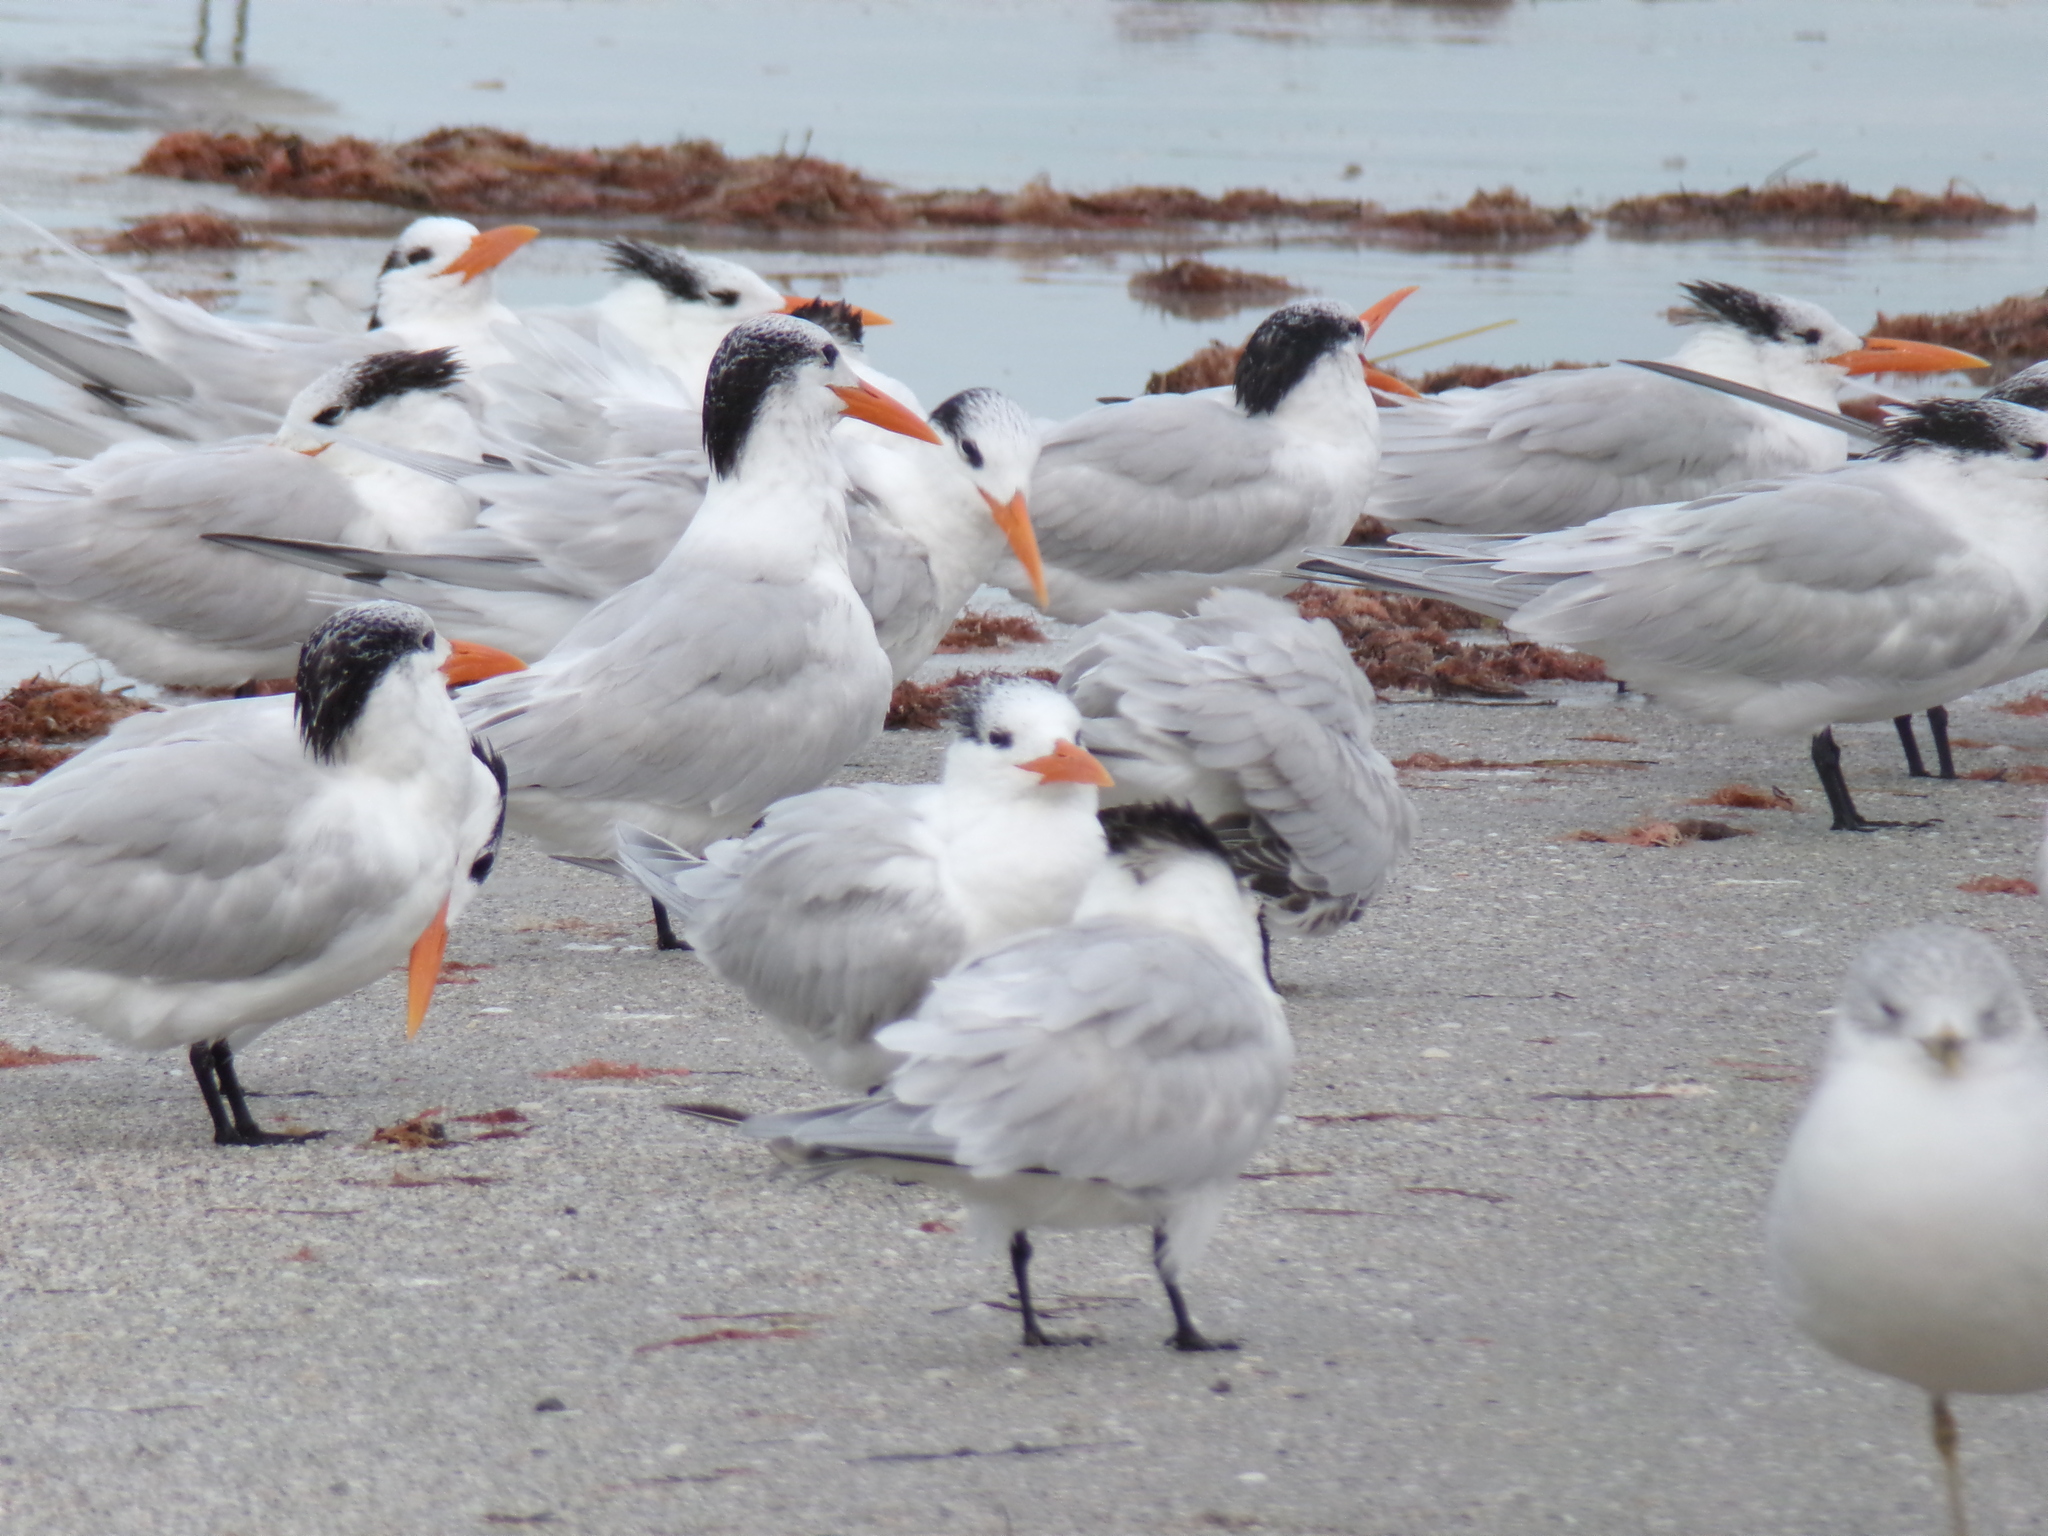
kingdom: Animalia
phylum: Chordata
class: Aves
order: Charadriiformes
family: Laridae
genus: Thalasseus
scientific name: Thalasseus maximus
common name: Royal tern
